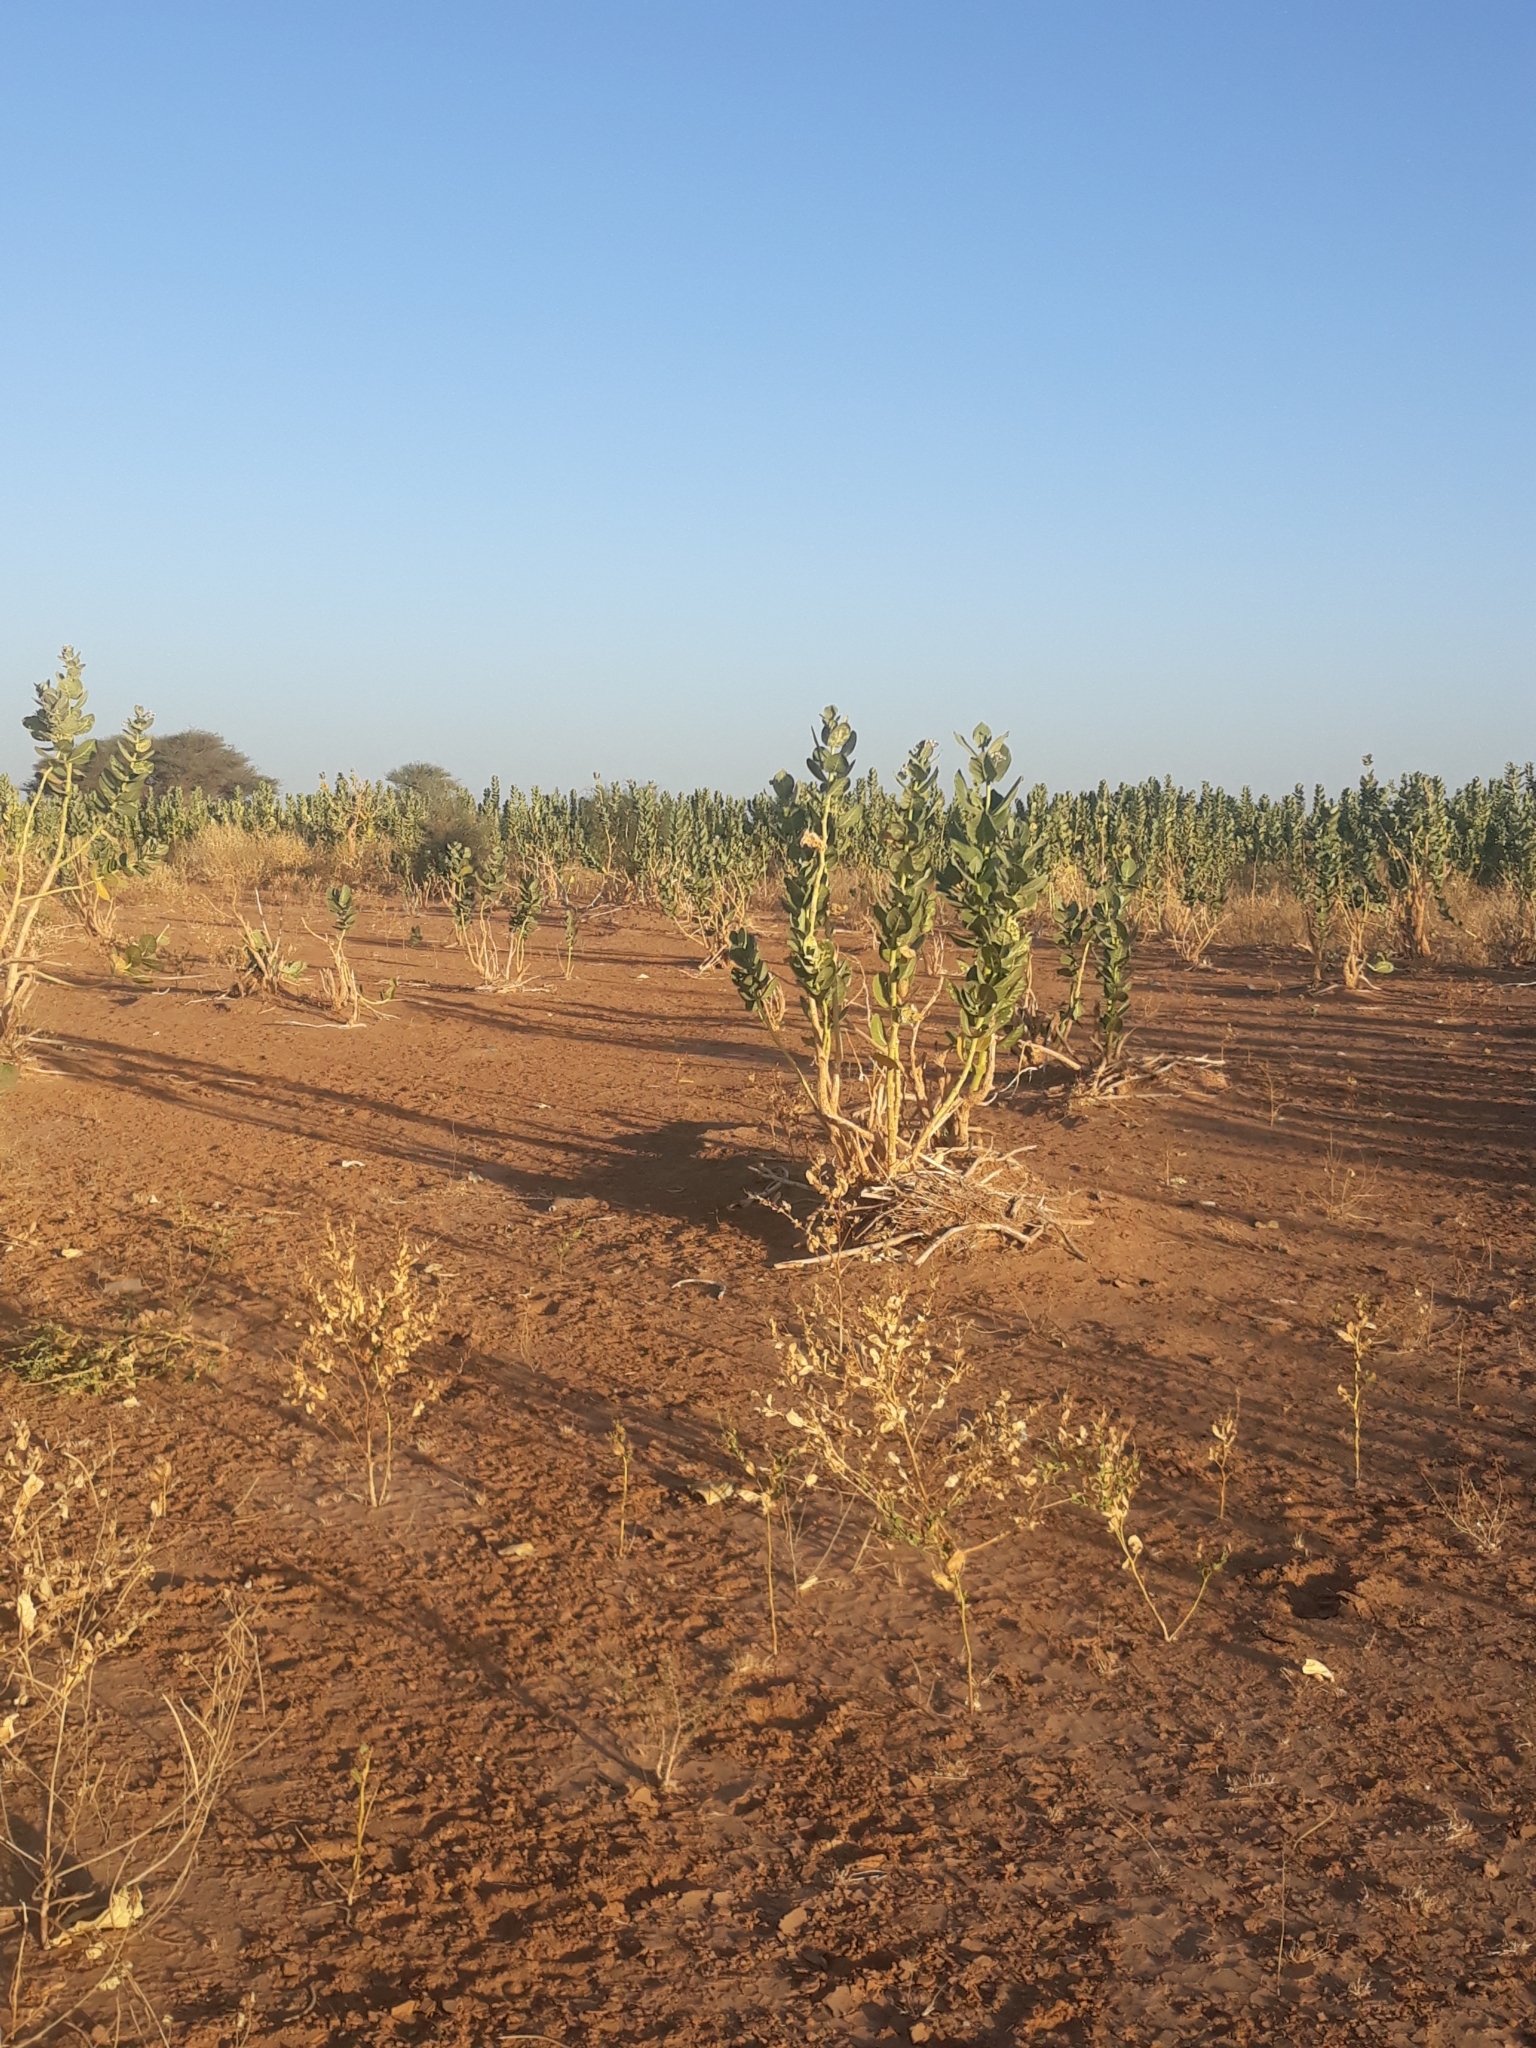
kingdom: Plantae
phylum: Tracheophyta
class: Magnoliopsida
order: Gentianales
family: Apocynaceae
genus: Calotropis
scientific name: Calotropis procera
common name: Roostertree
